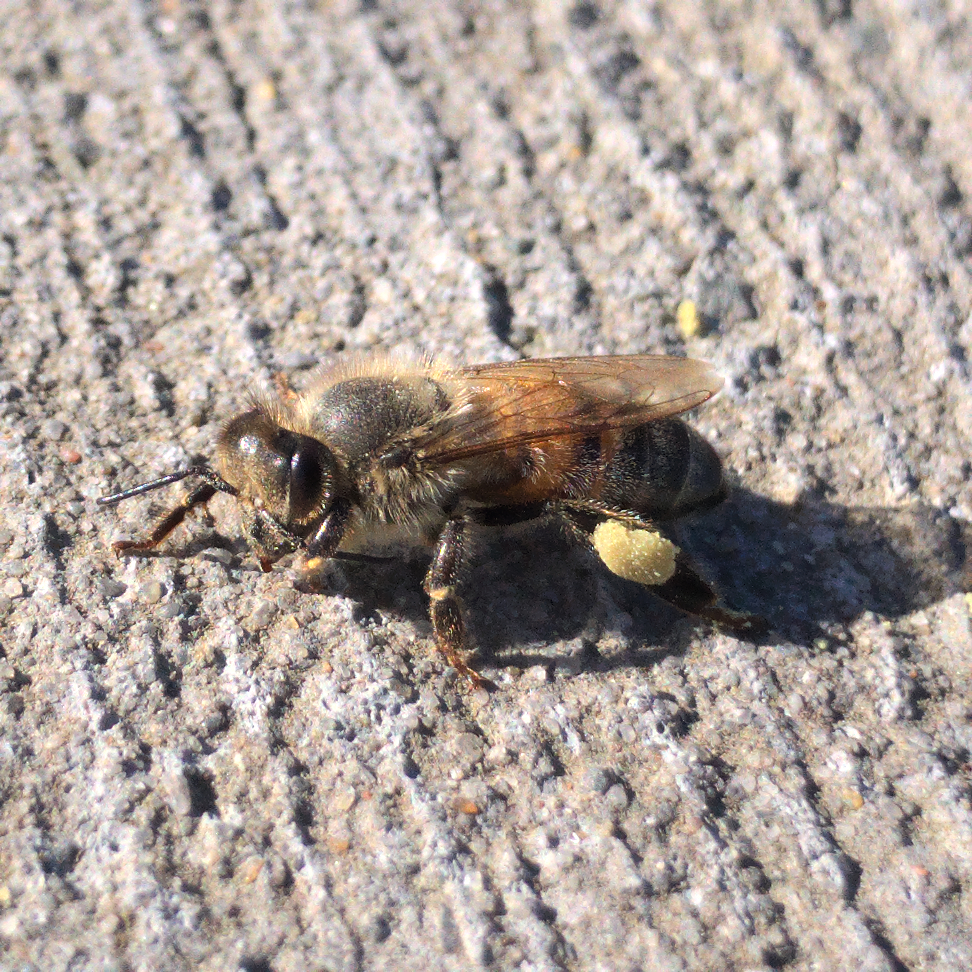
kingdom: Animalia
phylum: Arthropoda
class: Insecta
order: Hymenoptera
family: Apidae
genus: Apis
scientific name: Apis mellifera
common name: Honey bee
